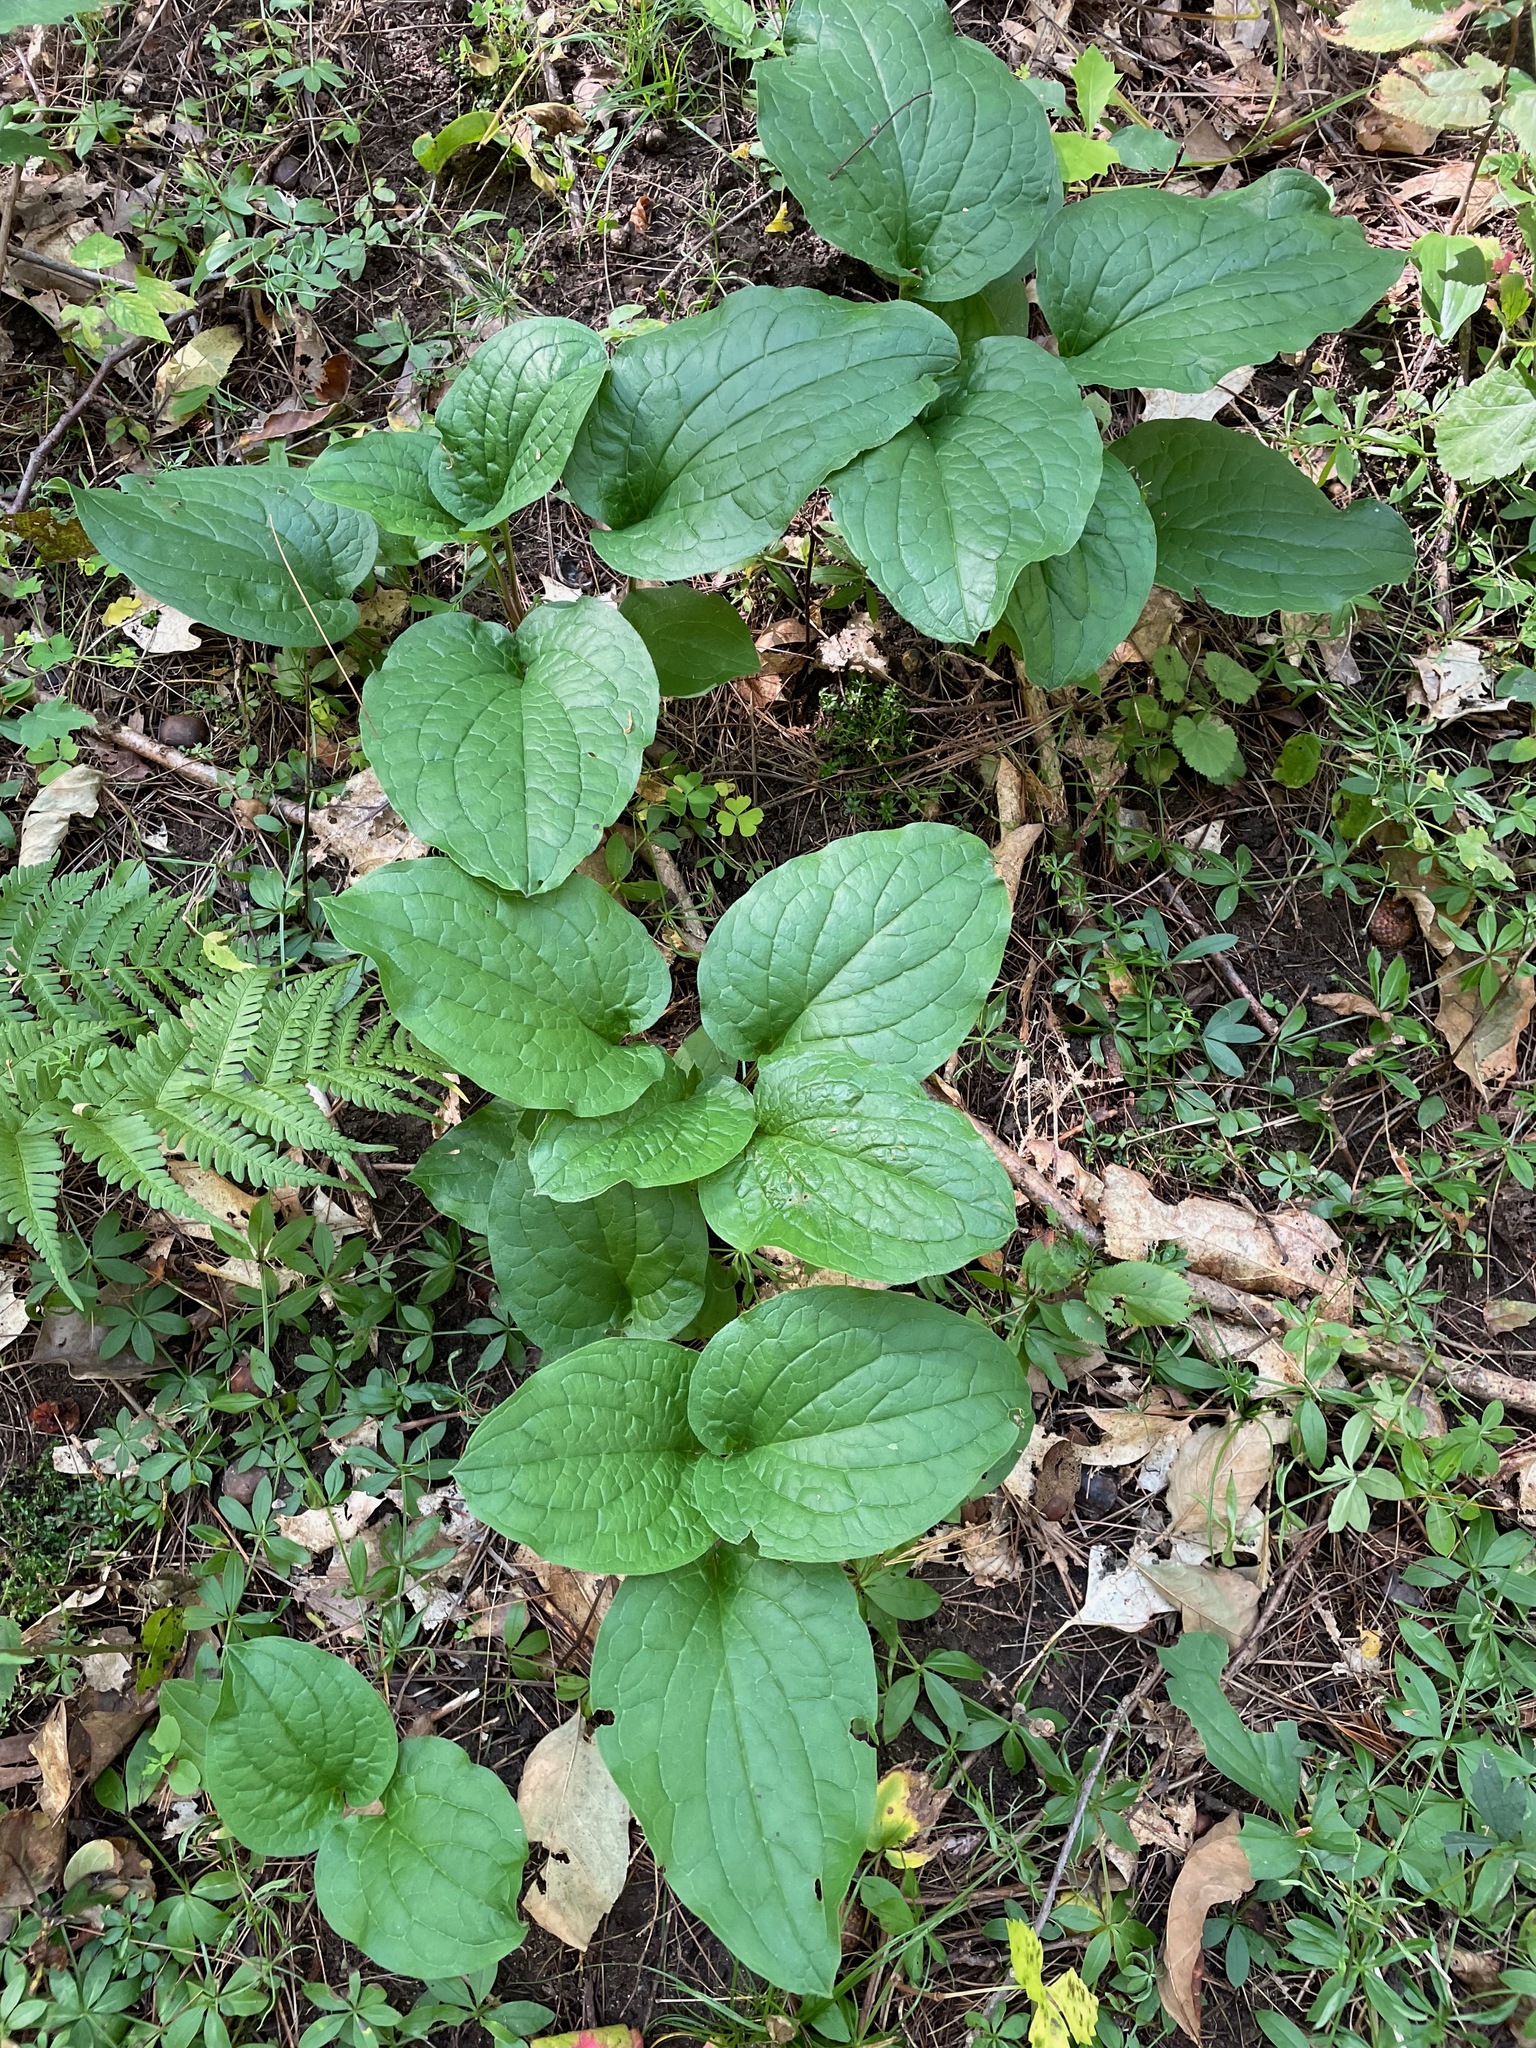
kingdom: Plantae
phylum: Tracheophyta
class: Magnoliopsida
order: Boraginales
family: Boraginaceae
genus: Hackelia
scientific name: Hackelia virginiana
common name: Beggar's-lice
